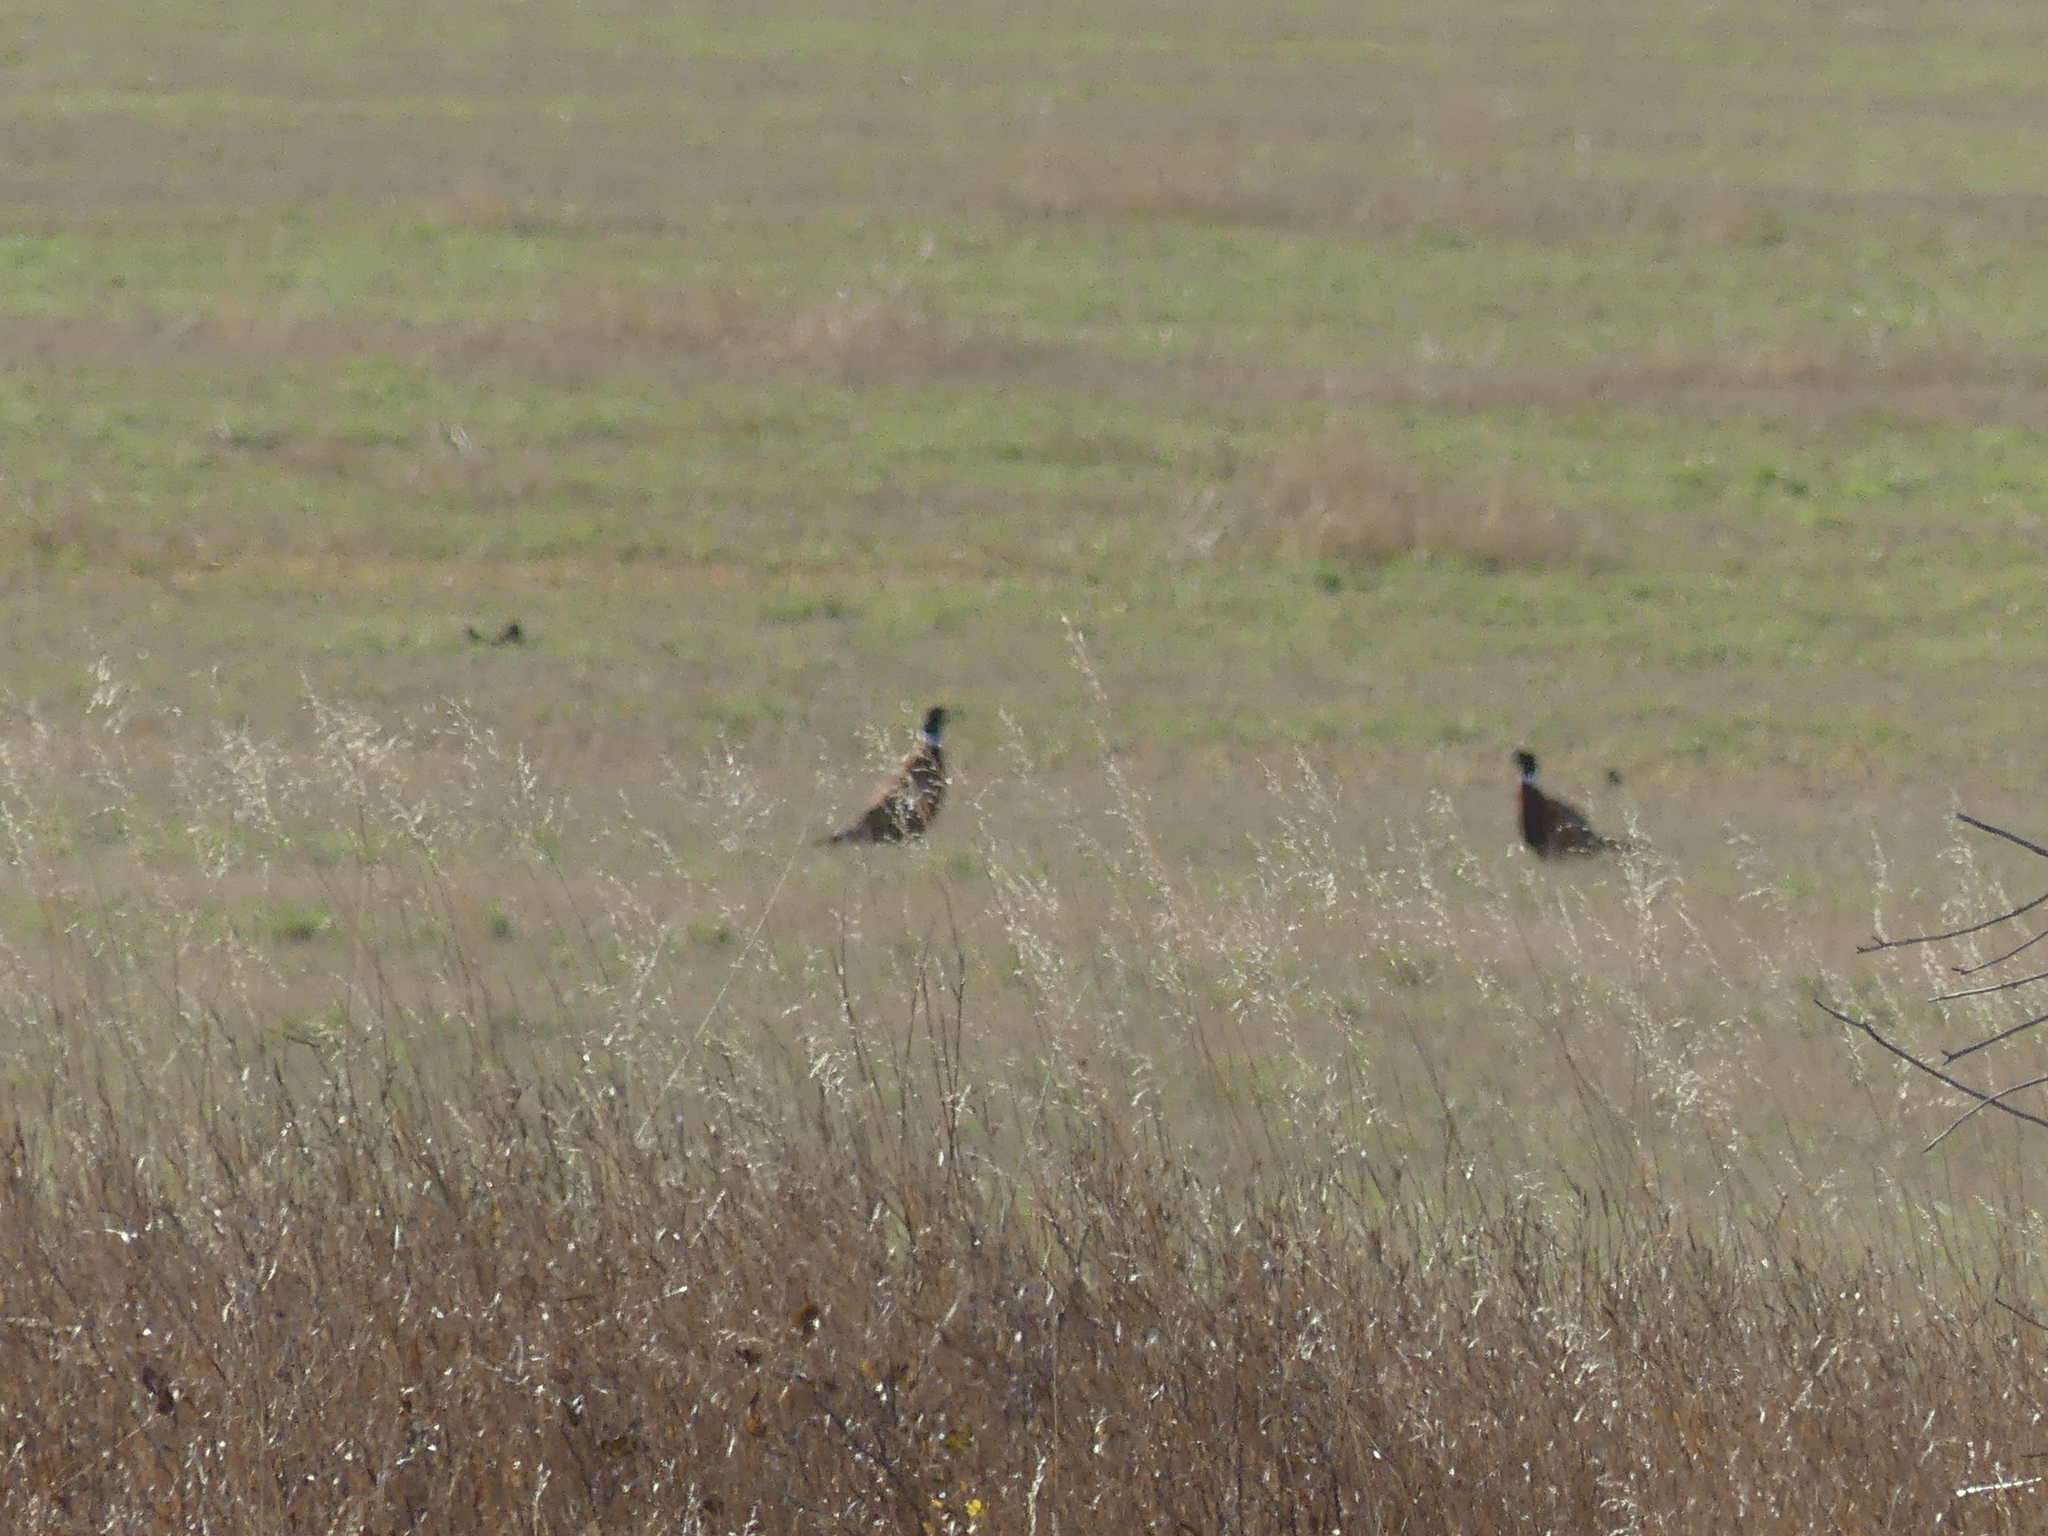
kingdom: Animalia
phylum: Chordata
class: Aves
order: Galliformes
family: Phasianidae
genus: Phasianus
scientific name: Phasianus colchicus
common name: Common pheasant
